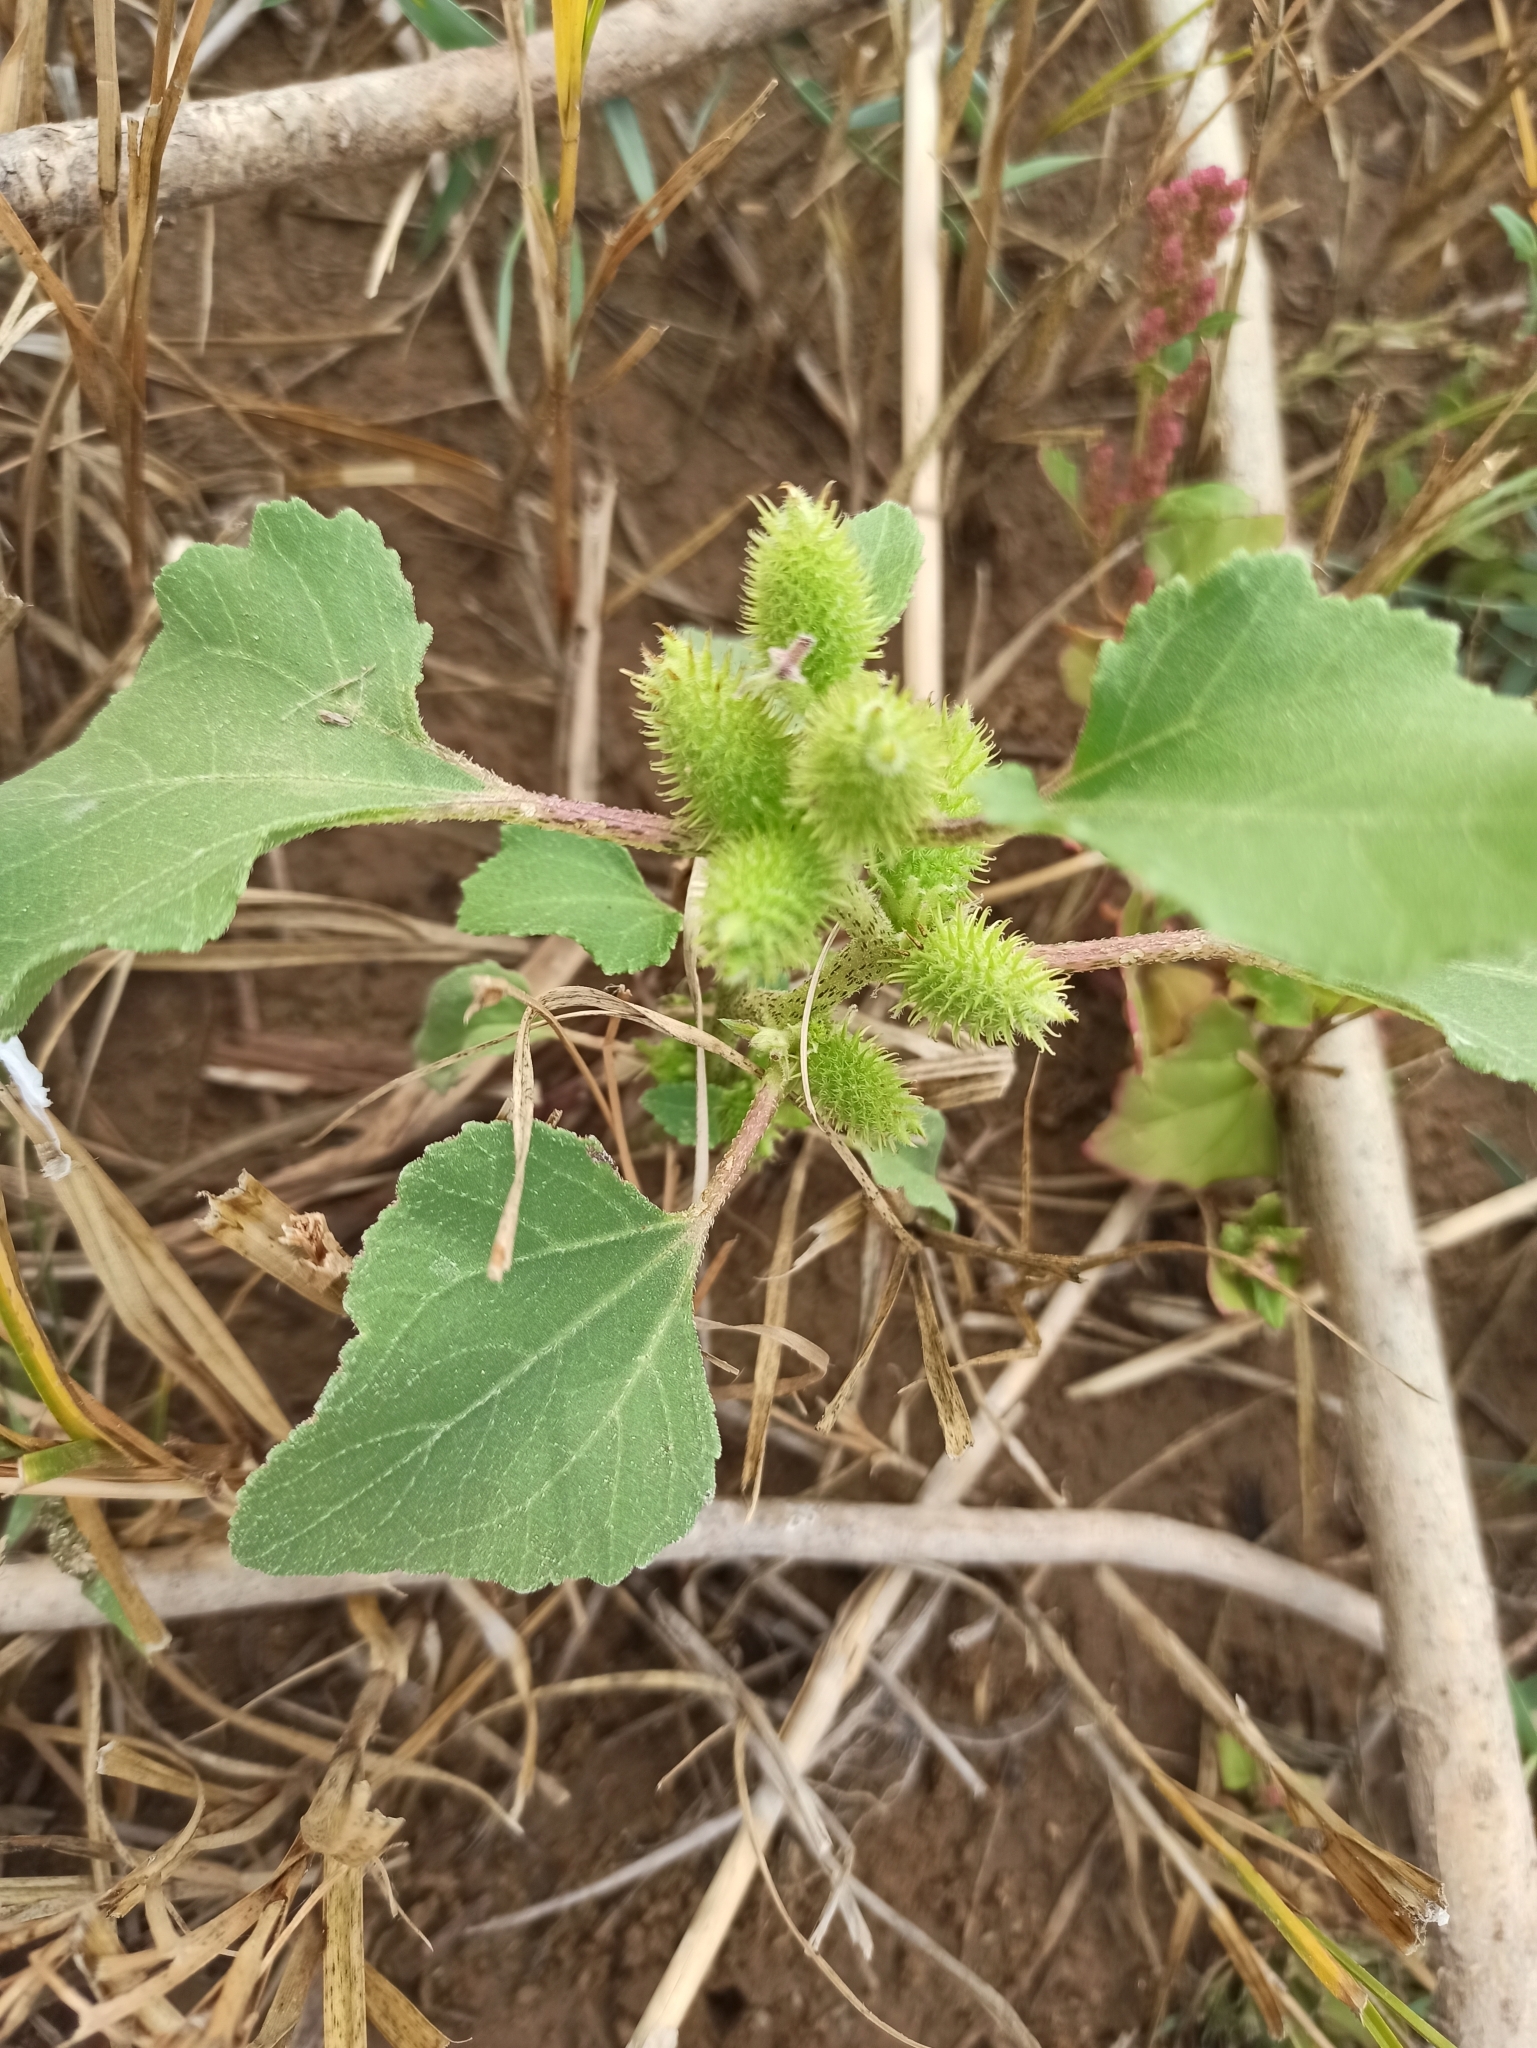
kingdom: Plantae
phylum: Tracheophyta
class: Magnoliopsida
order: Asterales
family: Asteraceae
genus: Xanthium
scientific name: Xanthium orientale
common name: Californian burr
